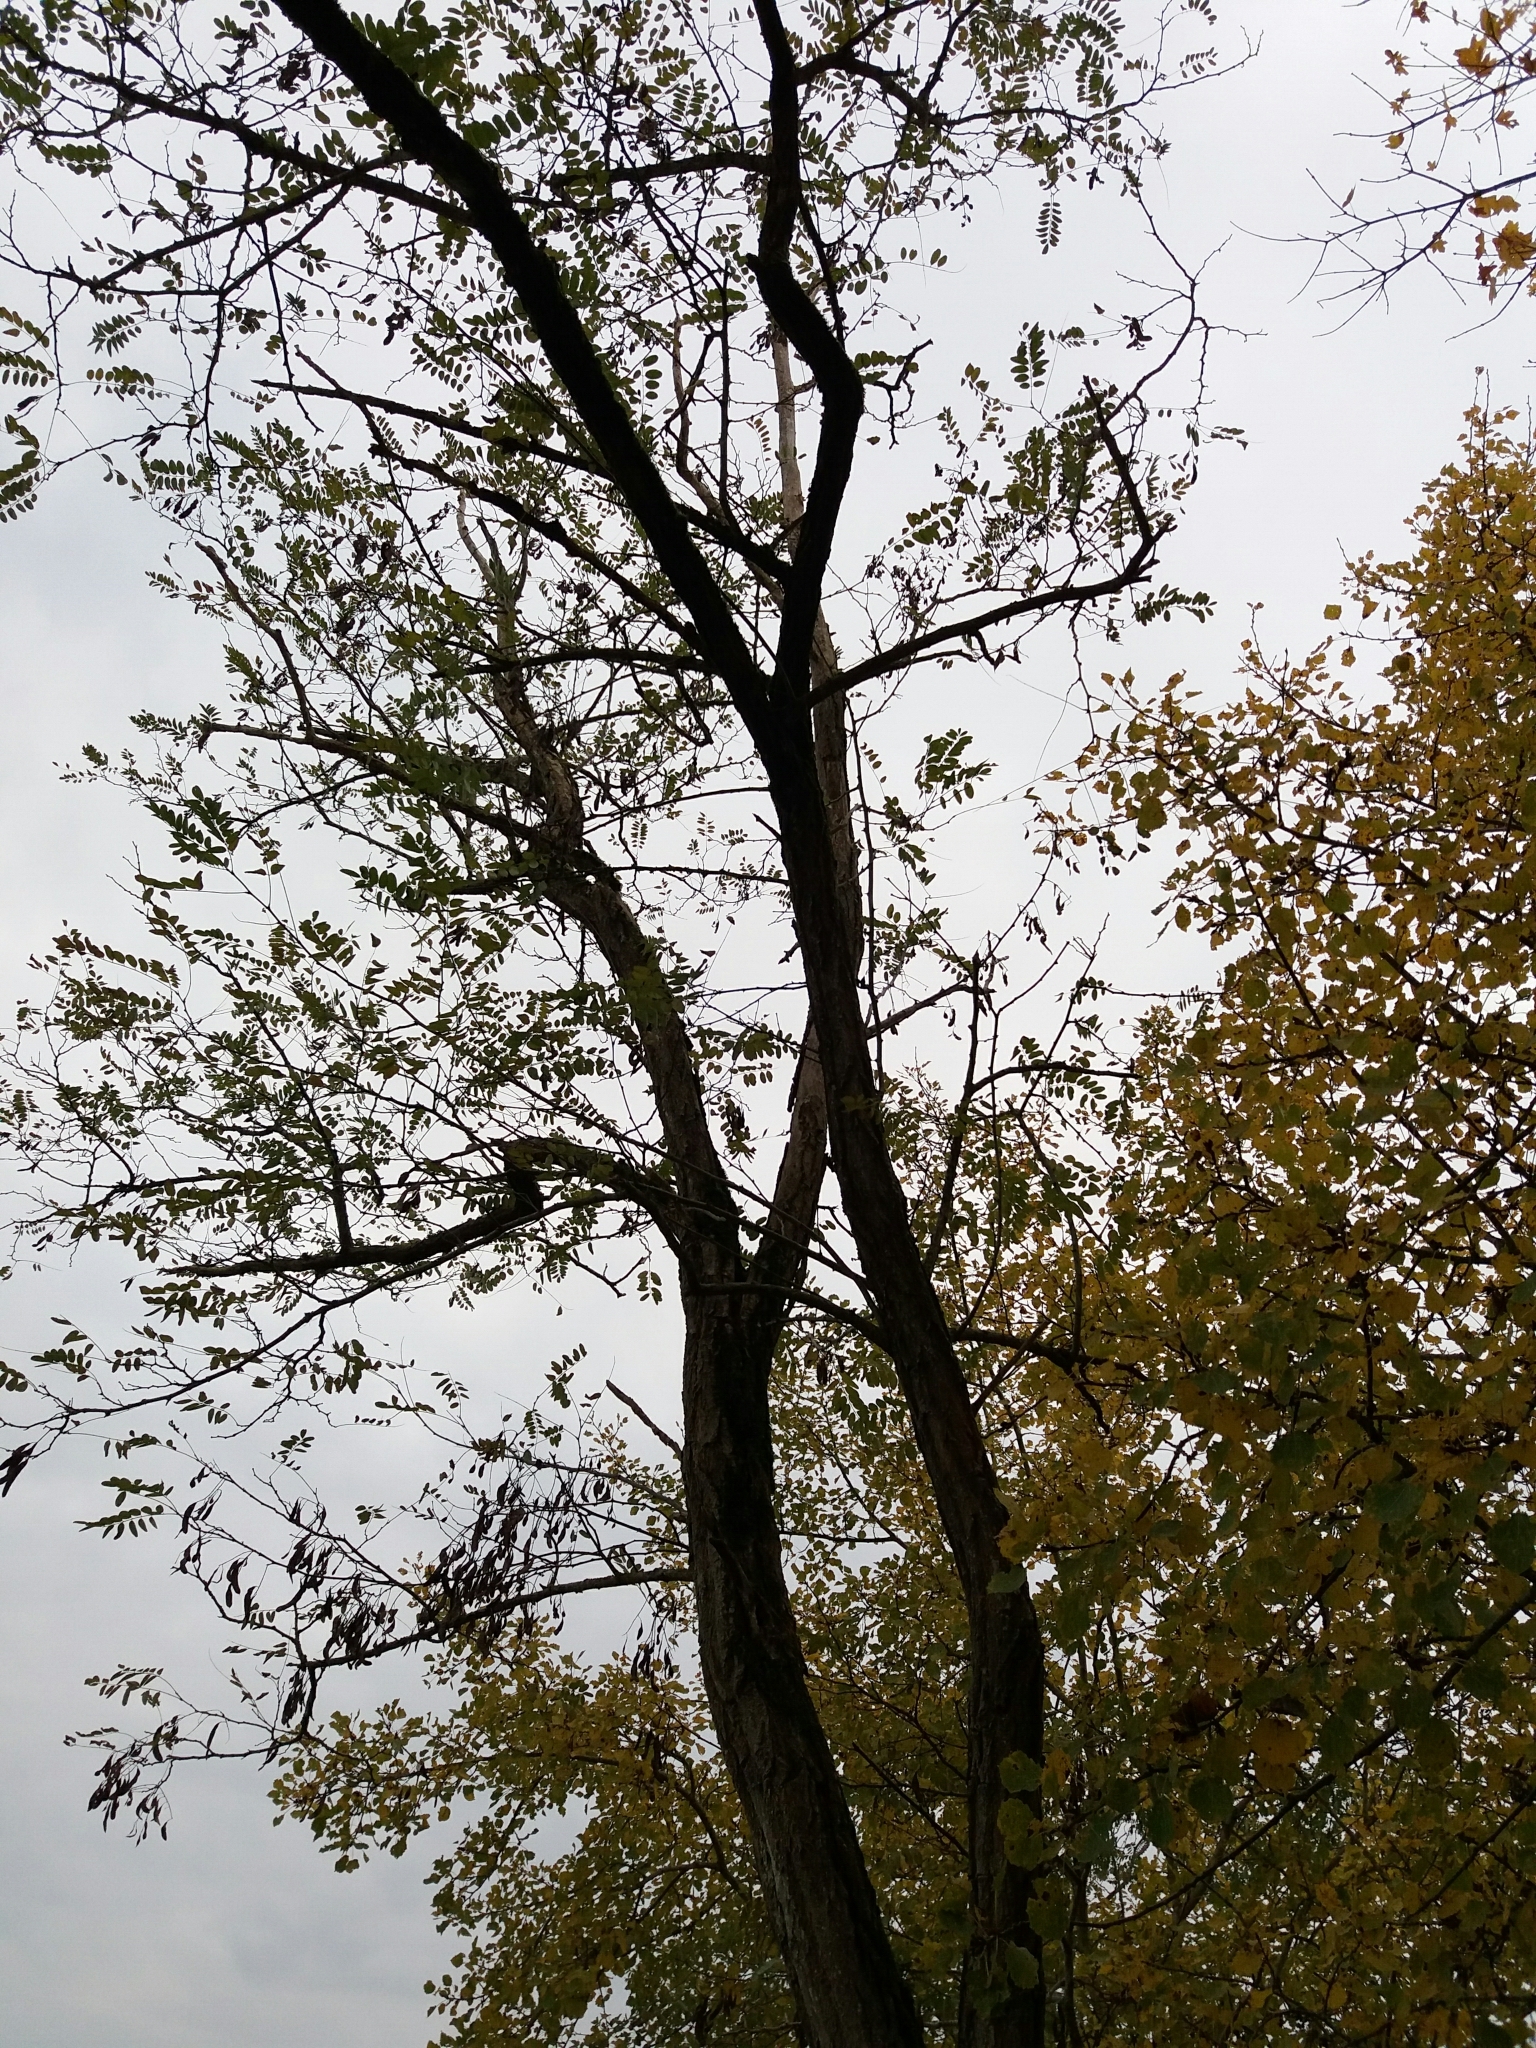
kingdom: Plantae
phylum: Tracheophyta
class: Magnoliopsida
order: Fabales
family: Fabaceae
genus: Robinia
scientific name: Robinia pseudoacacia
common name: Black locust
